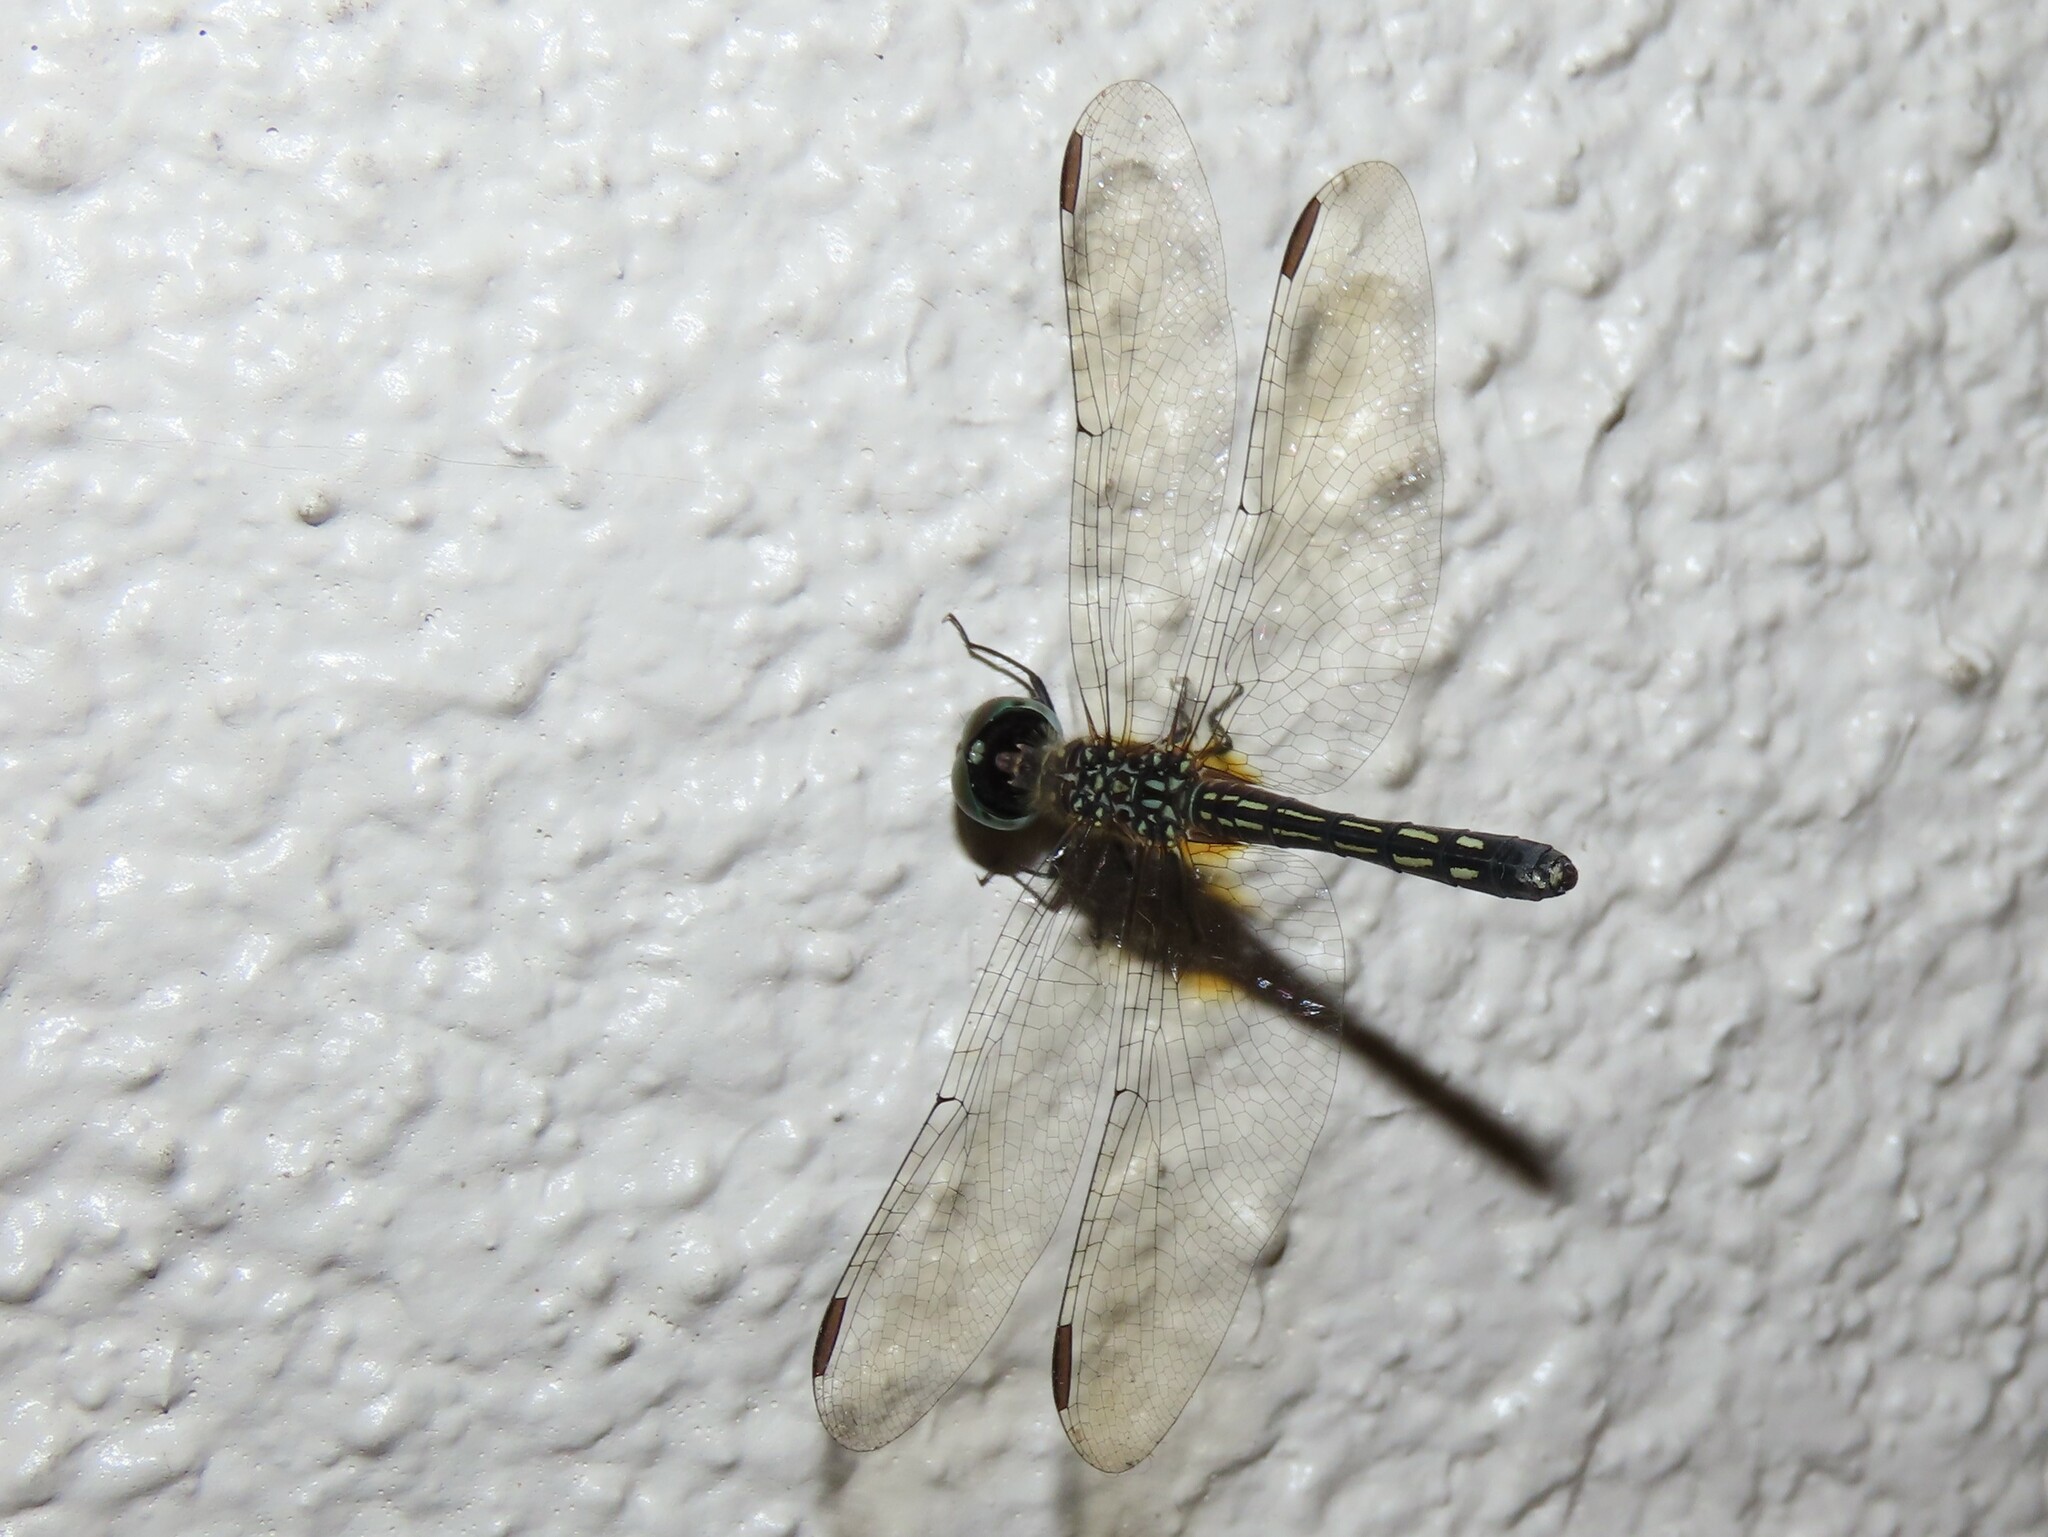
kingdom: Animalia
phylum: Arthropoda
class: Insecta
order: Odonata
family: Libellulidae
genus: Pachydiplax
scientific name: Pachydiplax longipennis
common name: Blue dasher
